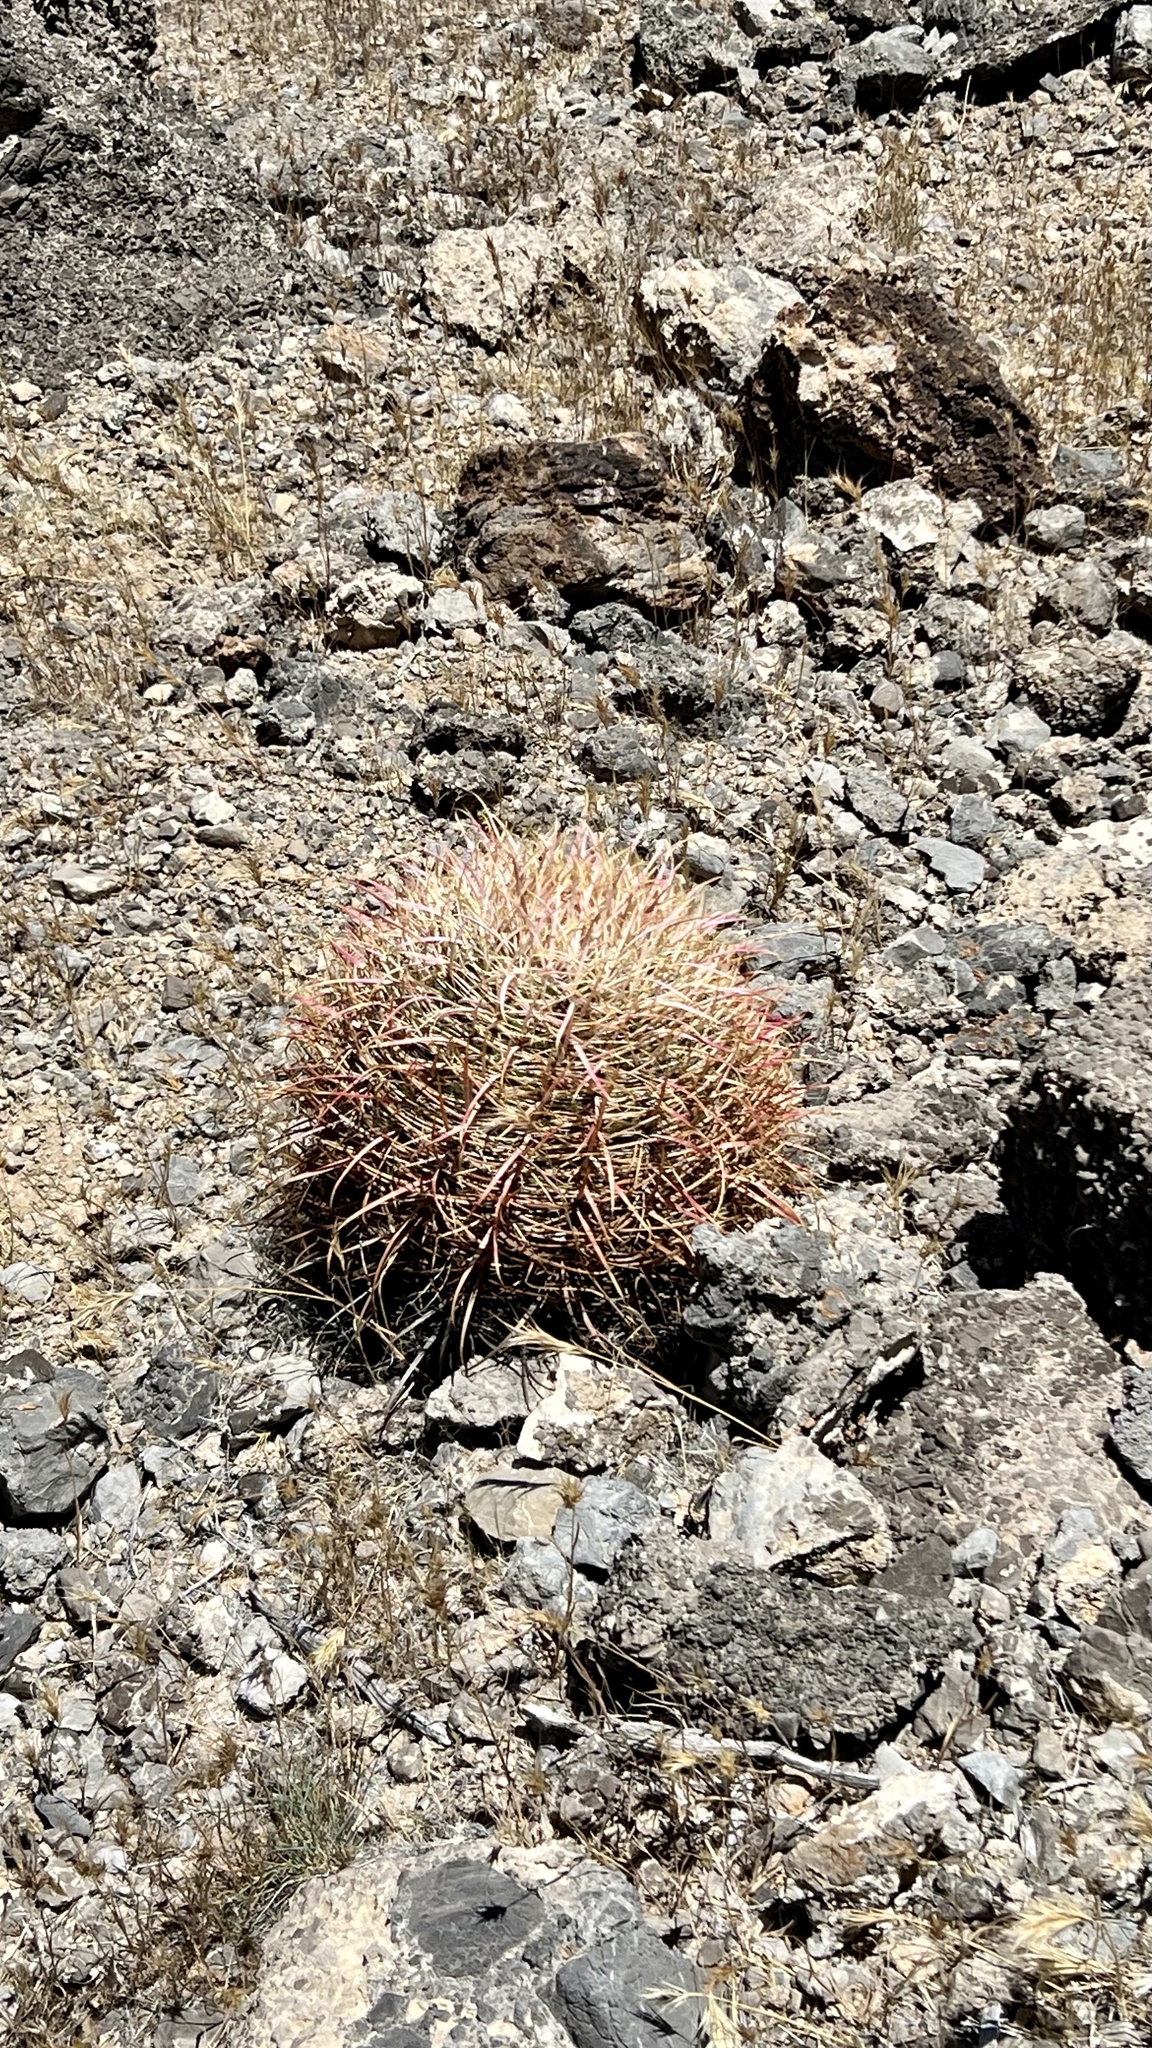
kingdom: Plantae
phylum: Tracheophyta
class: Magnoliopsida
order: Caryophyllales
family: Cactaceae
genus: Ferocactus
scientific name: Ferocactus cylindraceus
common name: California barrel cactus
